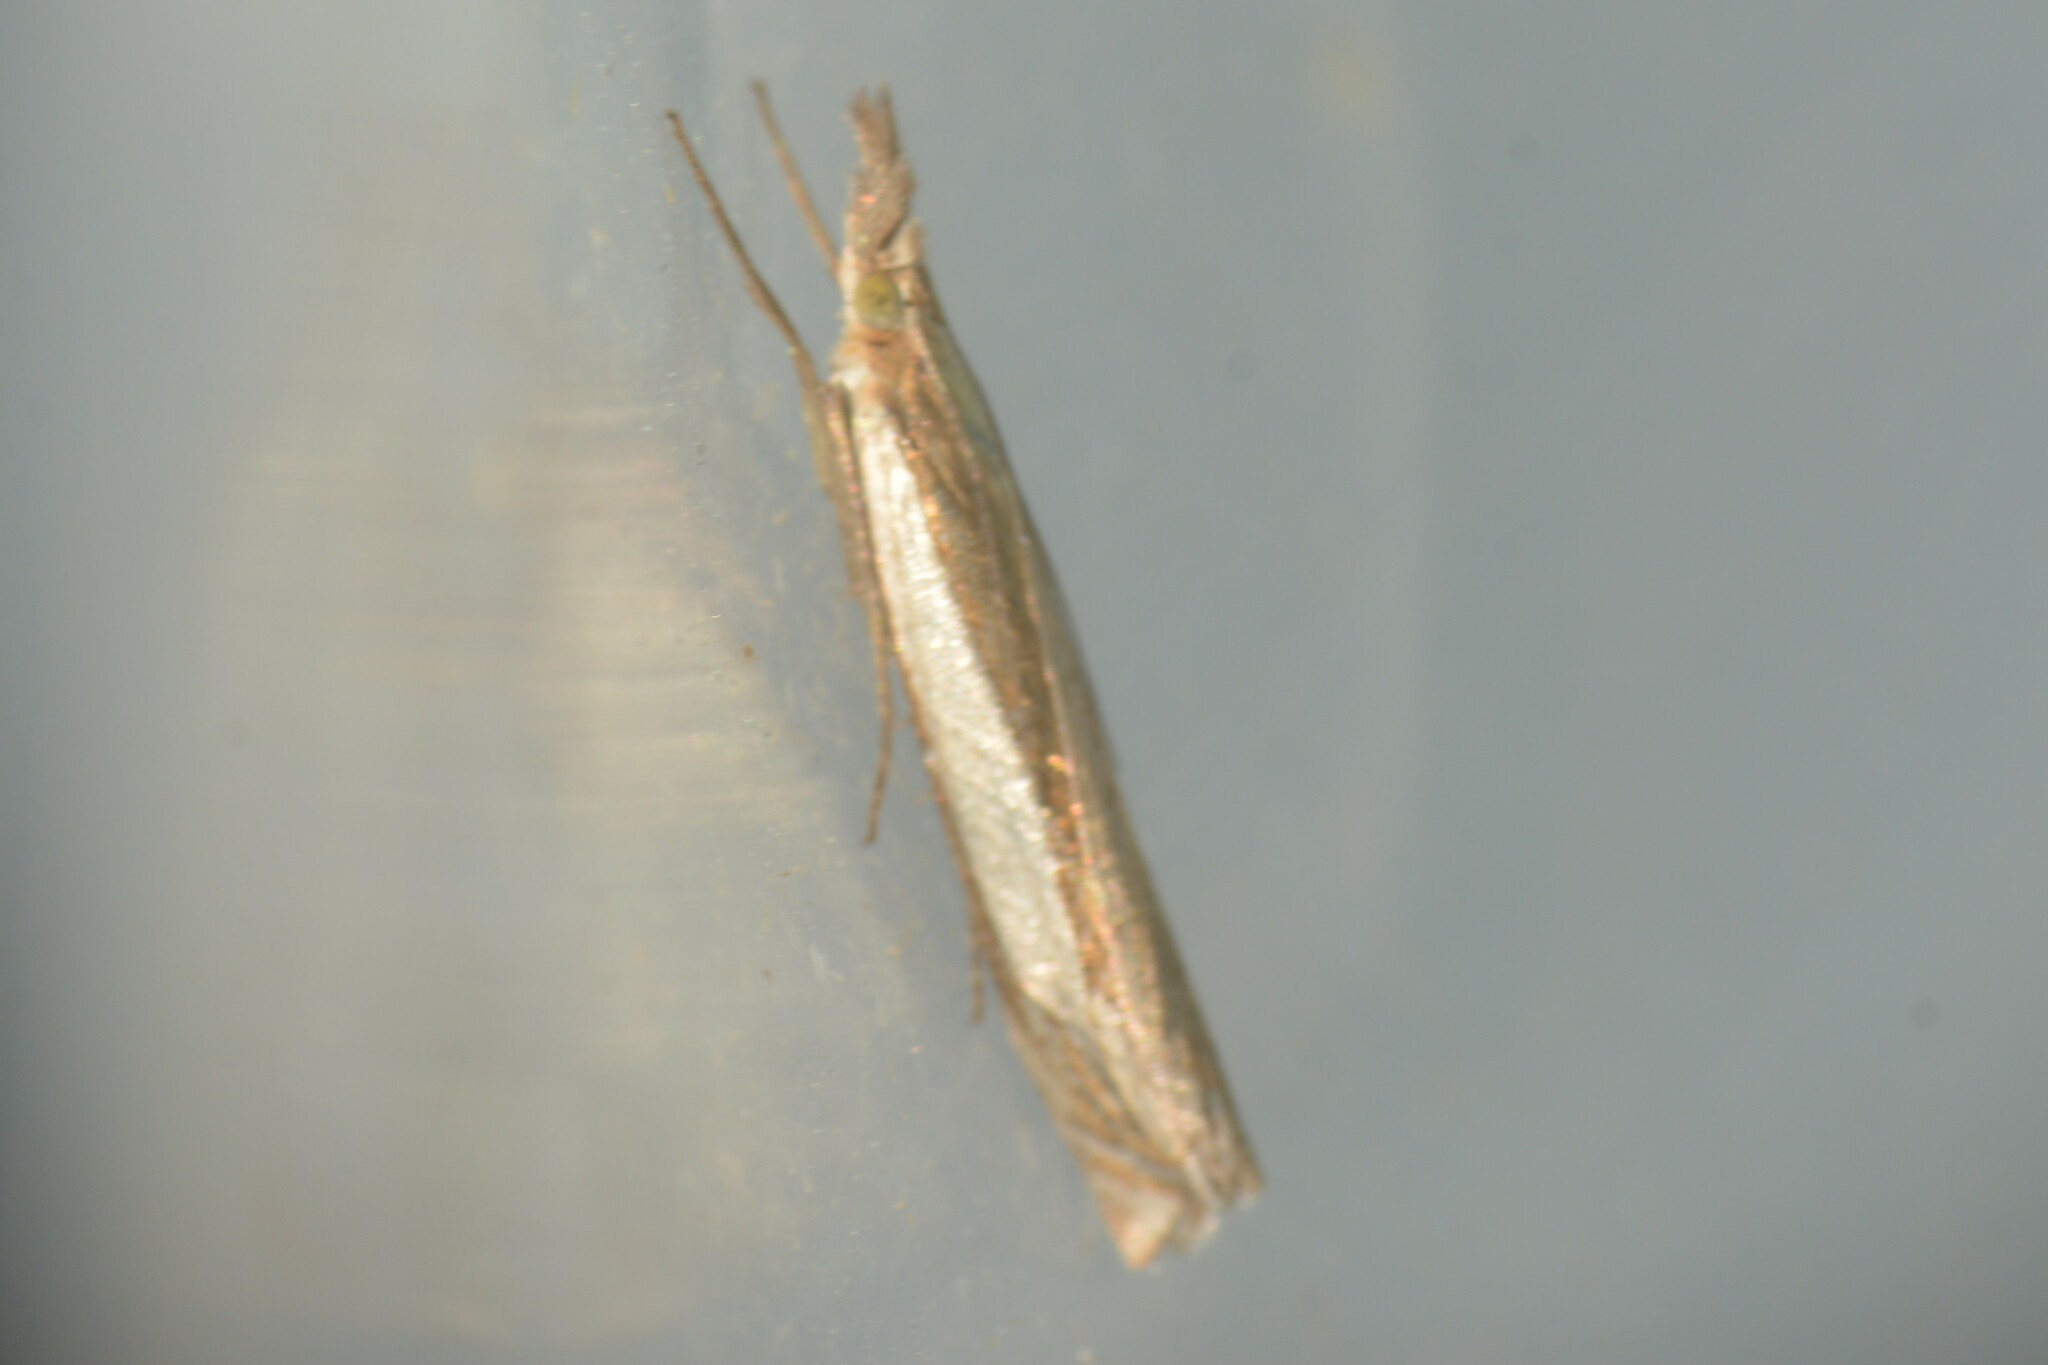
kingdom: Animalia
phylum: Arthropoda
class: Insecta
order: Lepidoptera
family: Crambidae
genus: Crambus
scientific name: Crambus pascuella
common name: Inlaid grass-veneer
